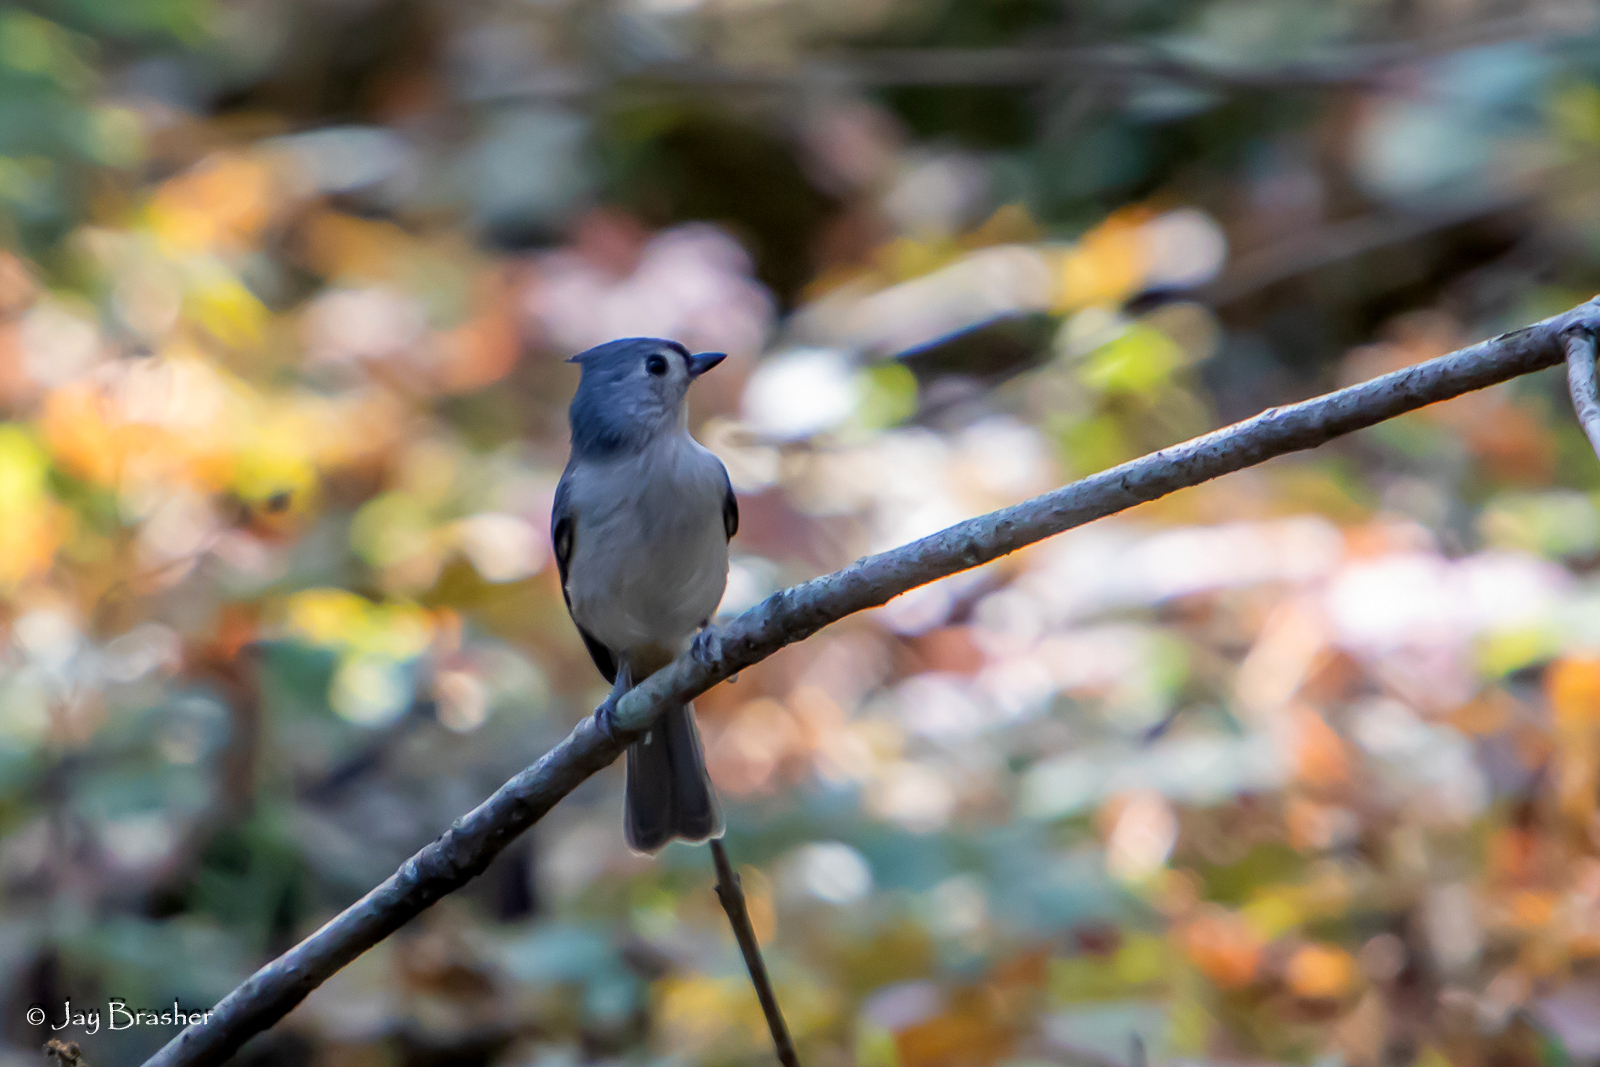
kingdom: Animalia
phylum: Chordata
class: Aves
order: Passeriformes
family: Paridae
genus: Baeolophus
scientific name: Baeolophus bicolor
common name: Tufted titmouse
